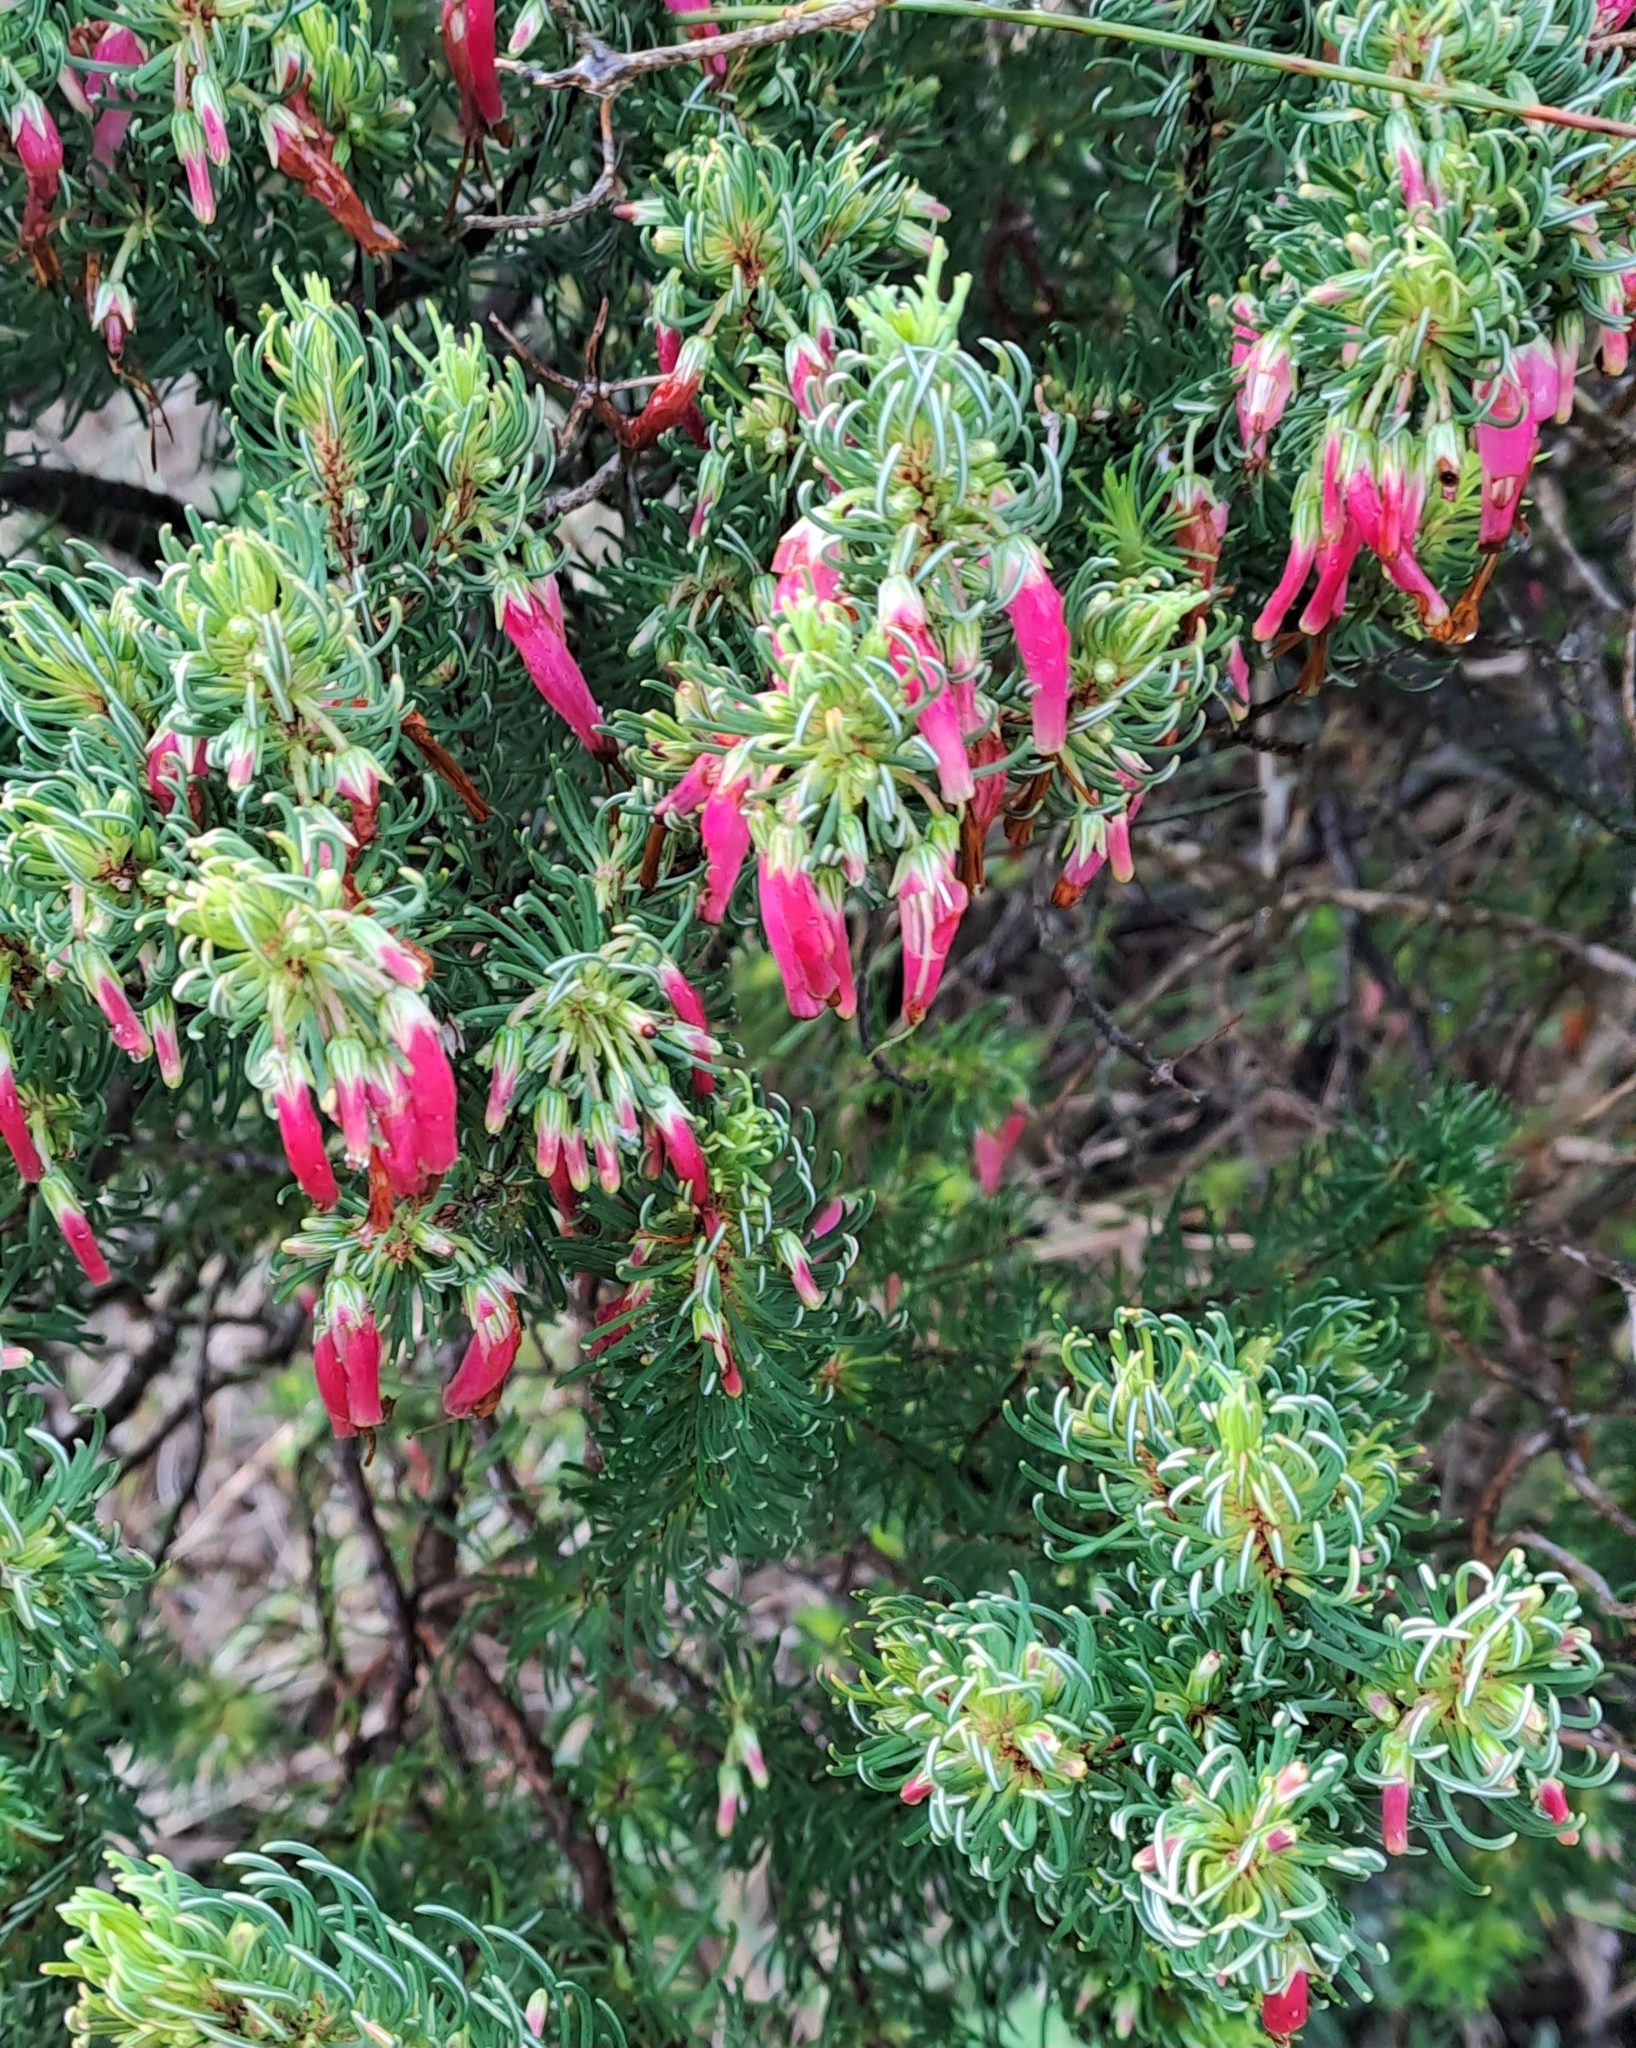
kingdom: Plantae
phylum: Tracheophyta
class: Magnoliopsida
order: Ericales
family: Ericaceae
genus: Erica
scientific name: Erica plukenetii
